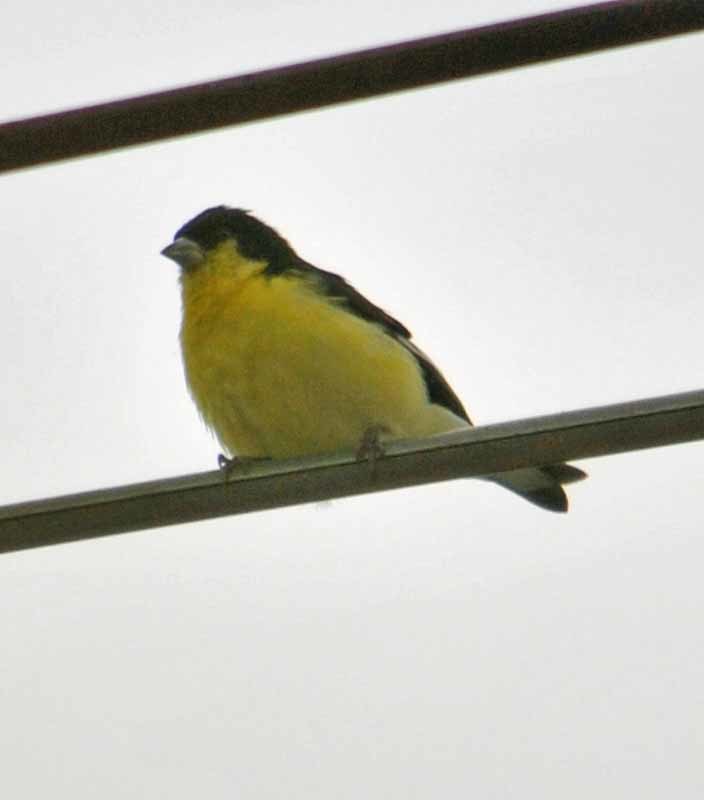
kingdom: Animalia
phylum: Chordata
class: Aves
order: Passeriformes
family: Fringillidae
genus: Spinus
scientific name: Spinus psaltria
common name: Lesser goldfinch
